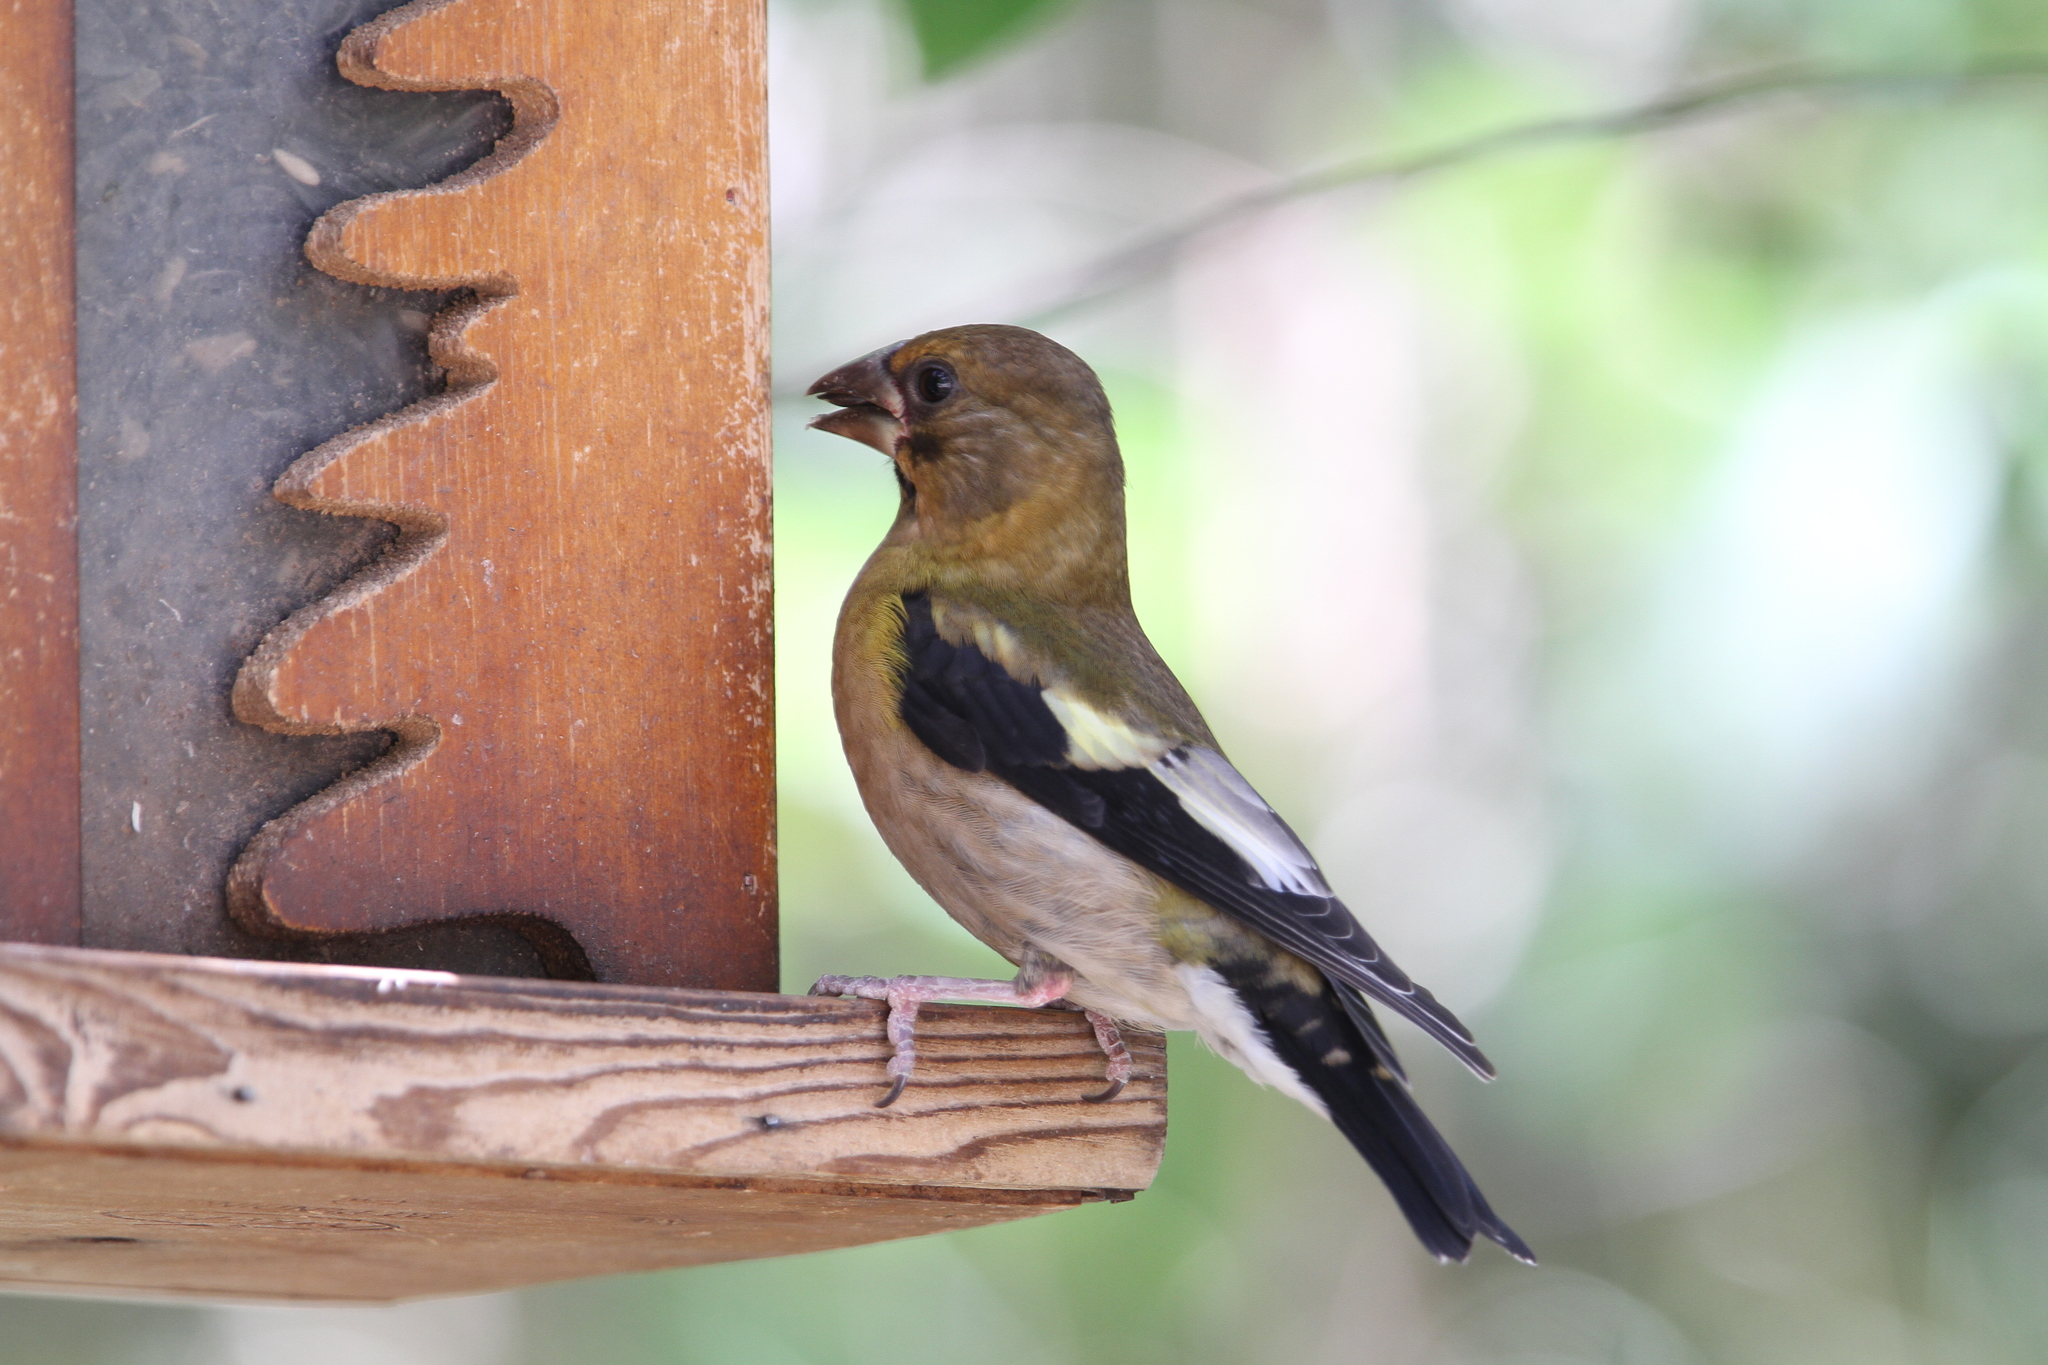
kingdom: Animalia
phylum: Chordata
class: Aves
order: Passeriformes
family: Fringillidae
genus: Hesperiphona
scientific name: Hesperiphona vespertina
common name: Evening grosbeak
